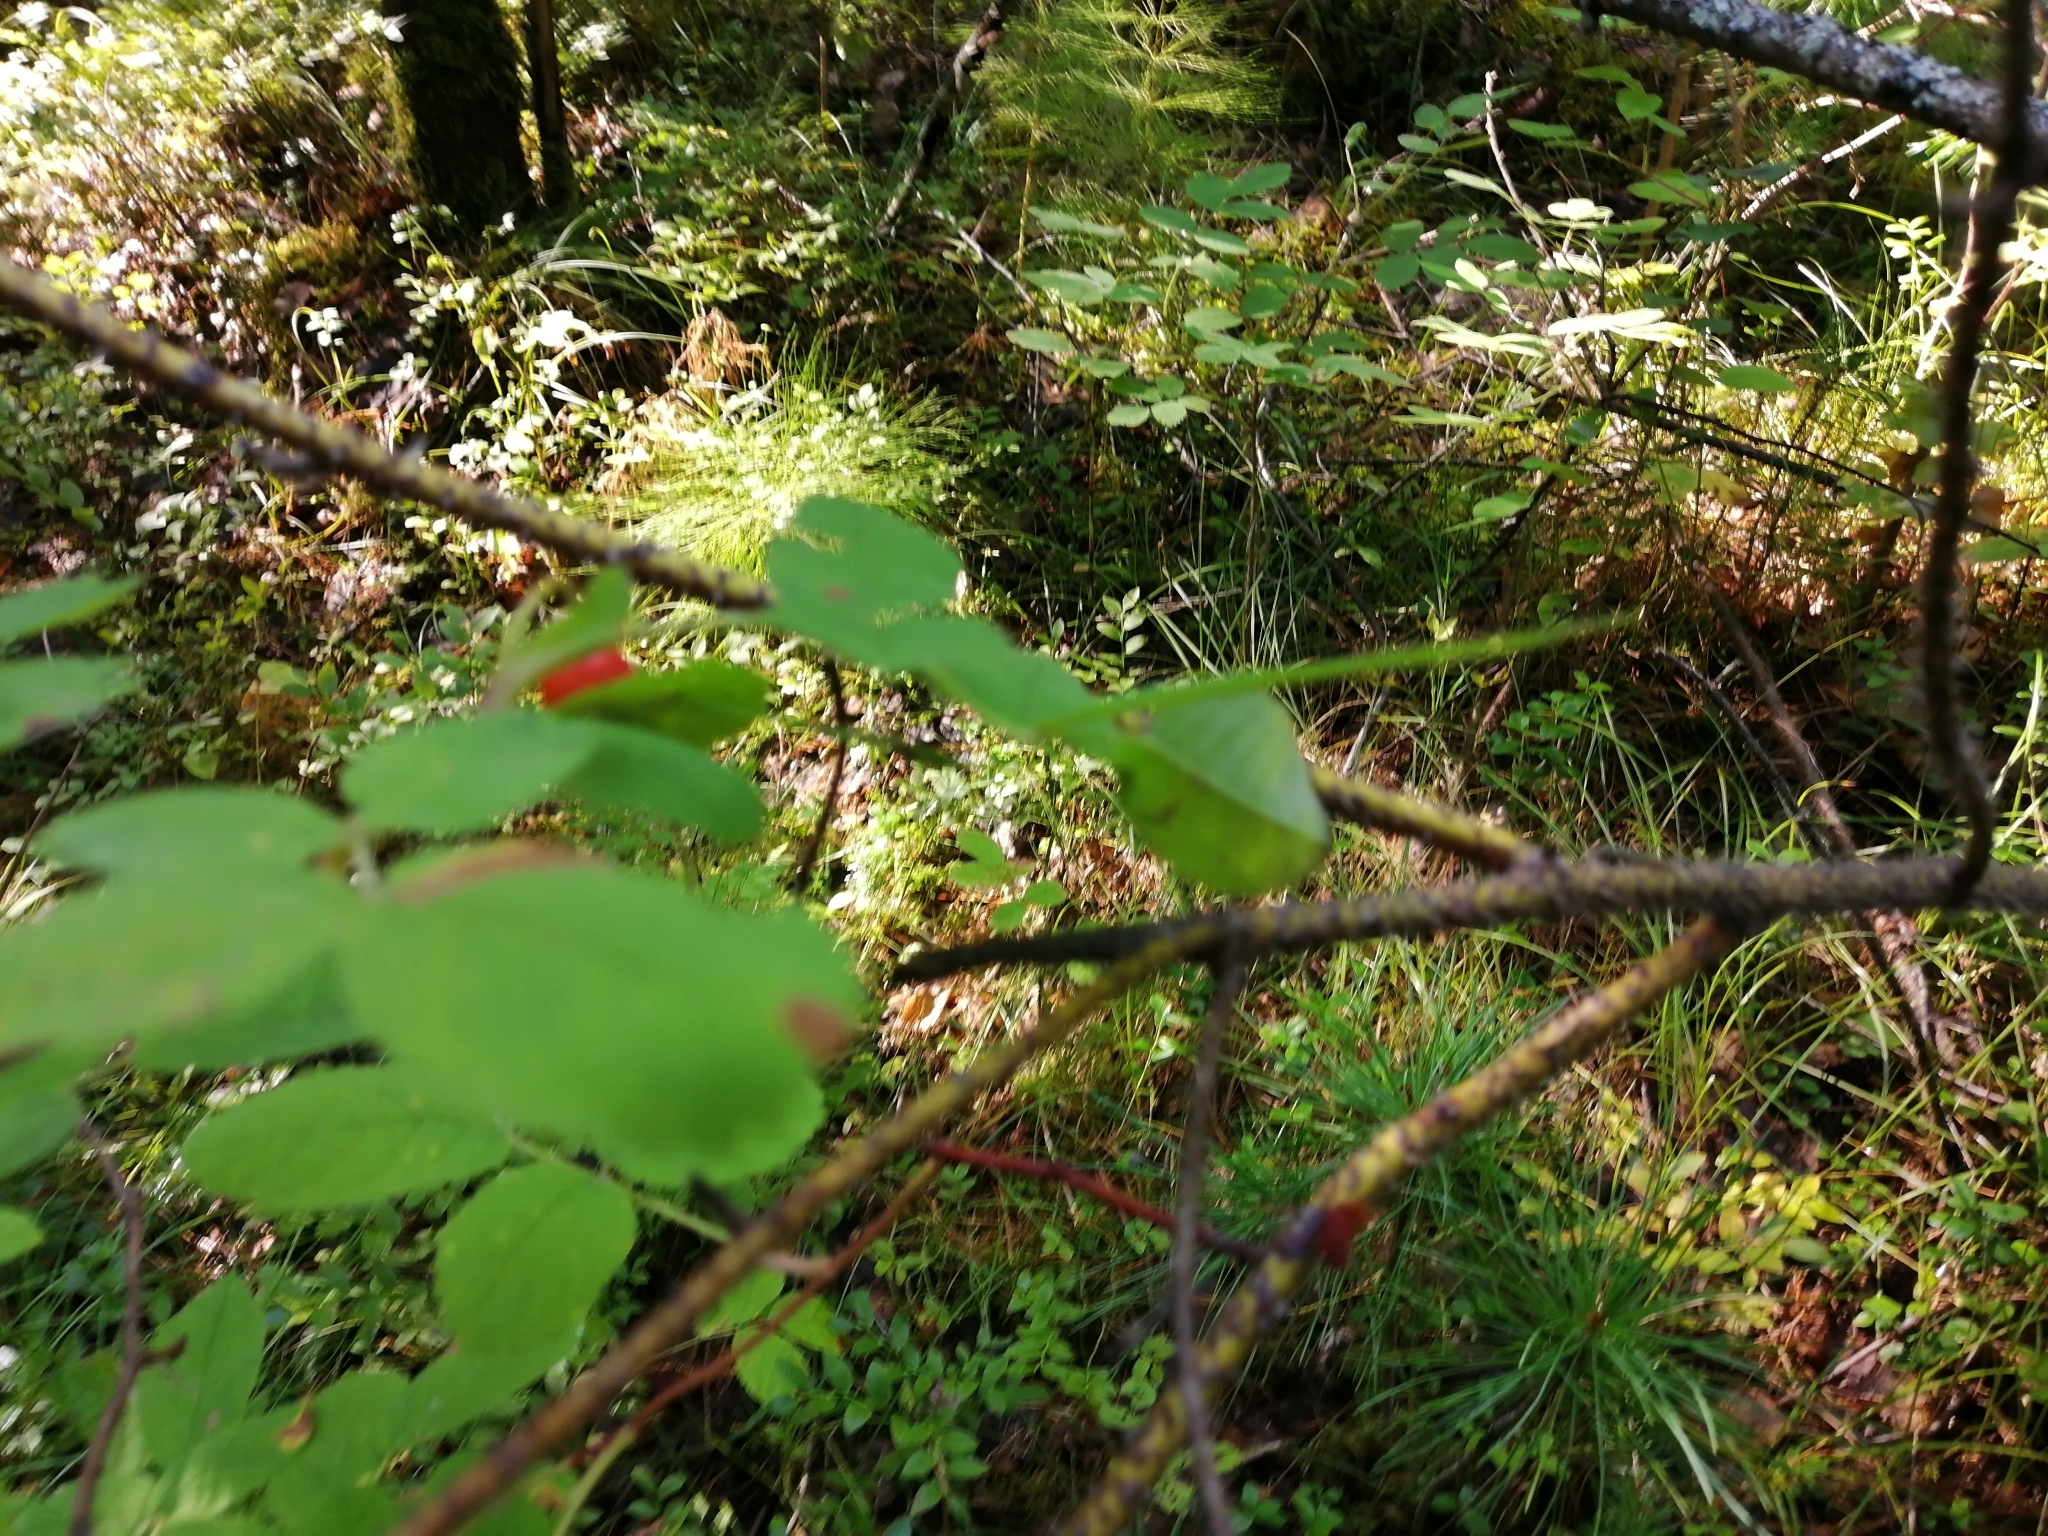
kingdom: Plantae
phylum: Tracheophyta
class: Magnoliopsida
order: Rosales
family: Rosaceae
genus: Rosa
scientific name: Rosa acicularis
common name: Prickly rose
